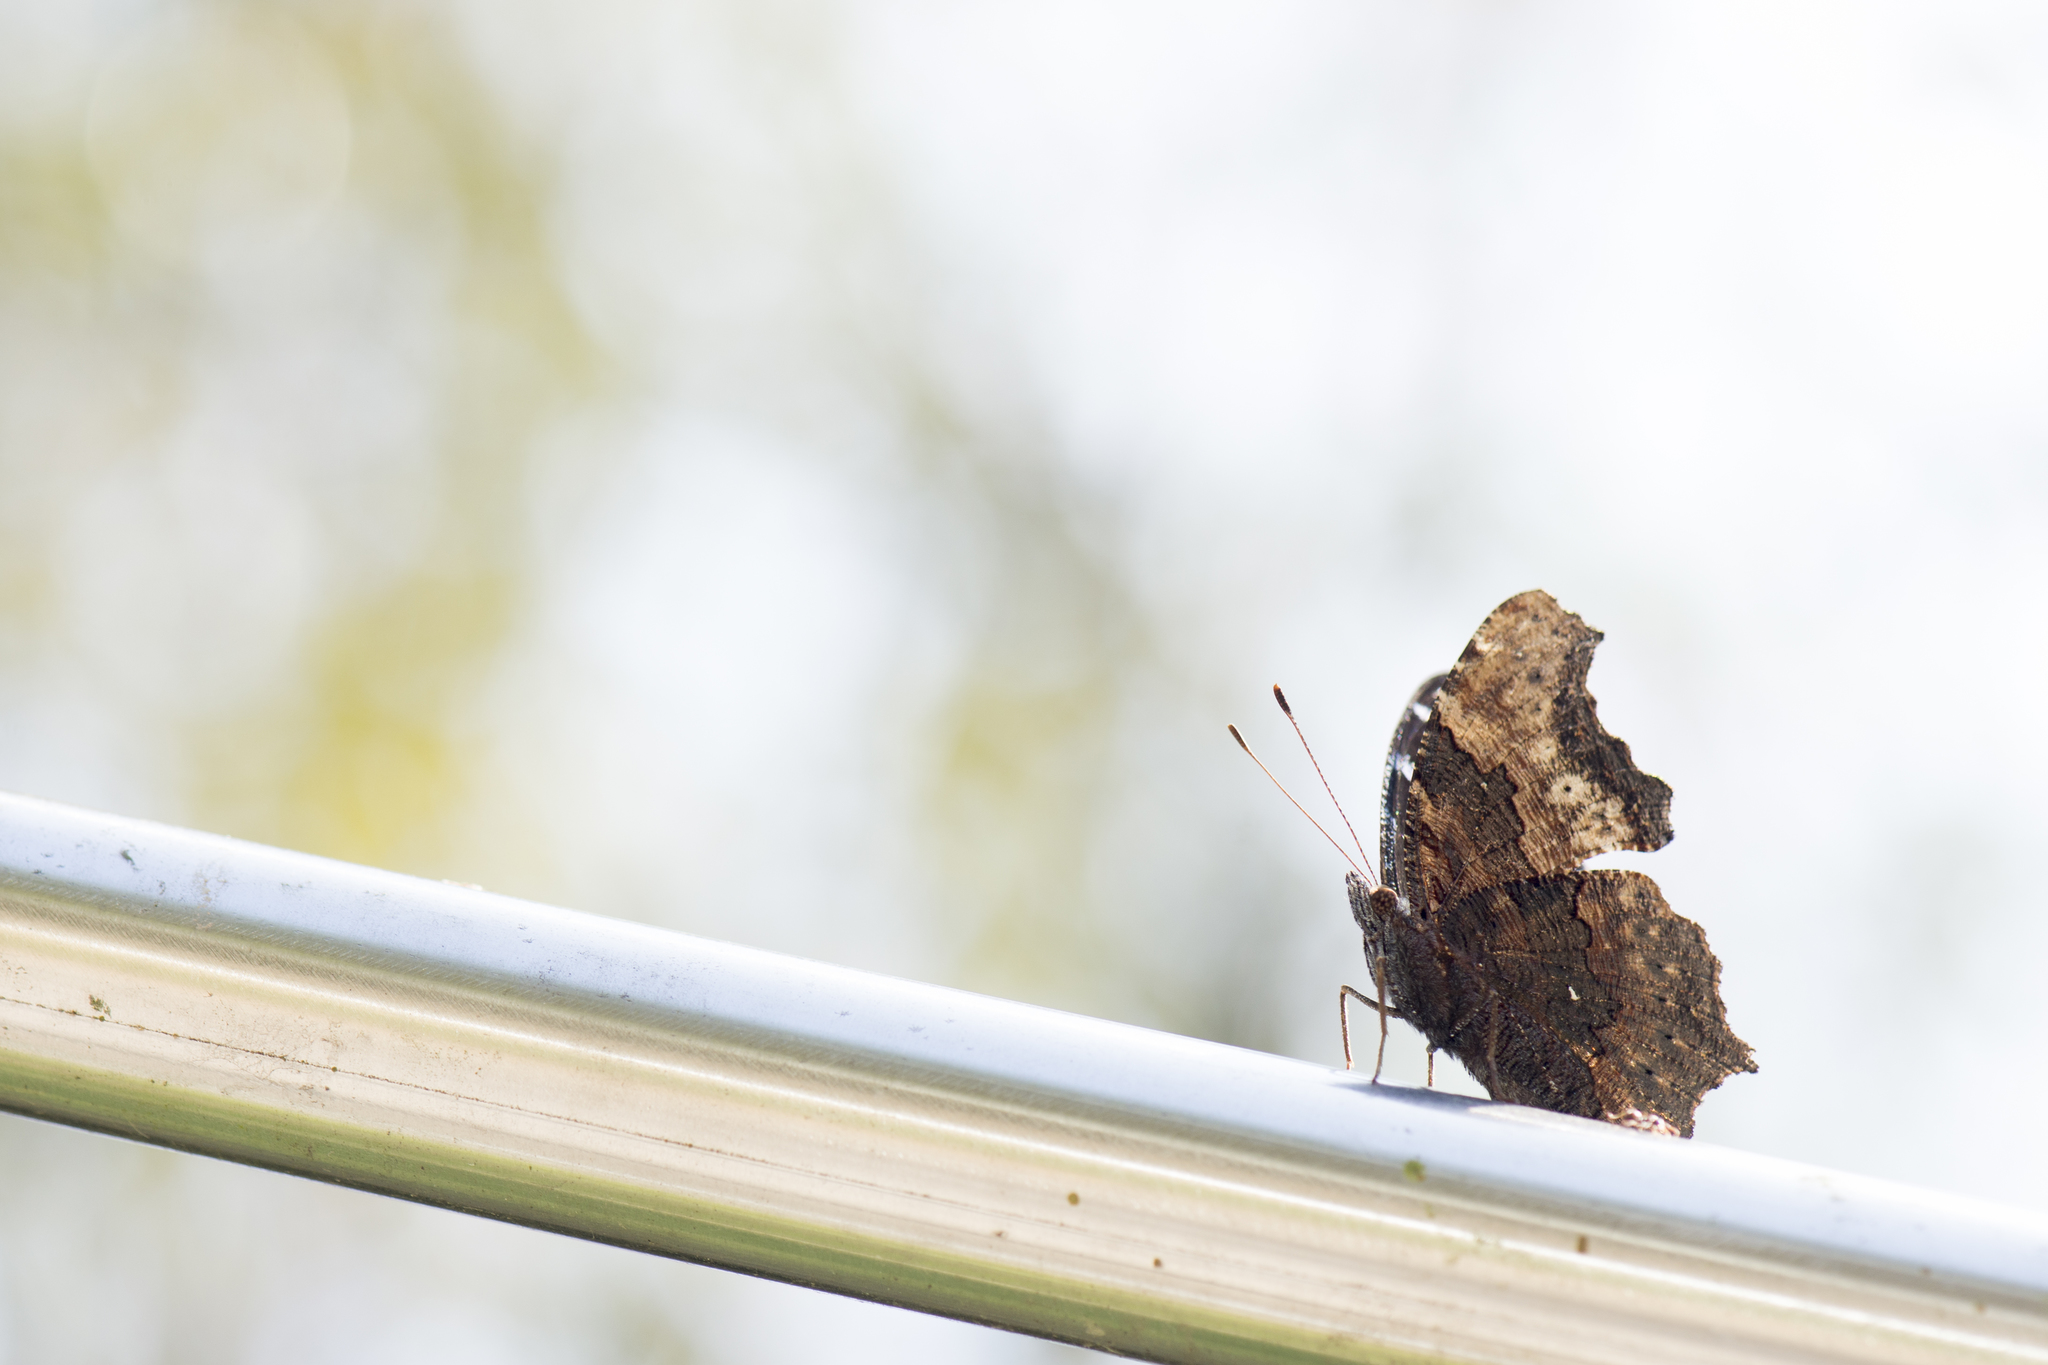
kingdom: Animalia
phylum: Arthropoda
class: Insecta
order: Lepidoptera
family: Nymphalidae
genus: Vanessa
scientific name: Vanessa Kaniska canace
